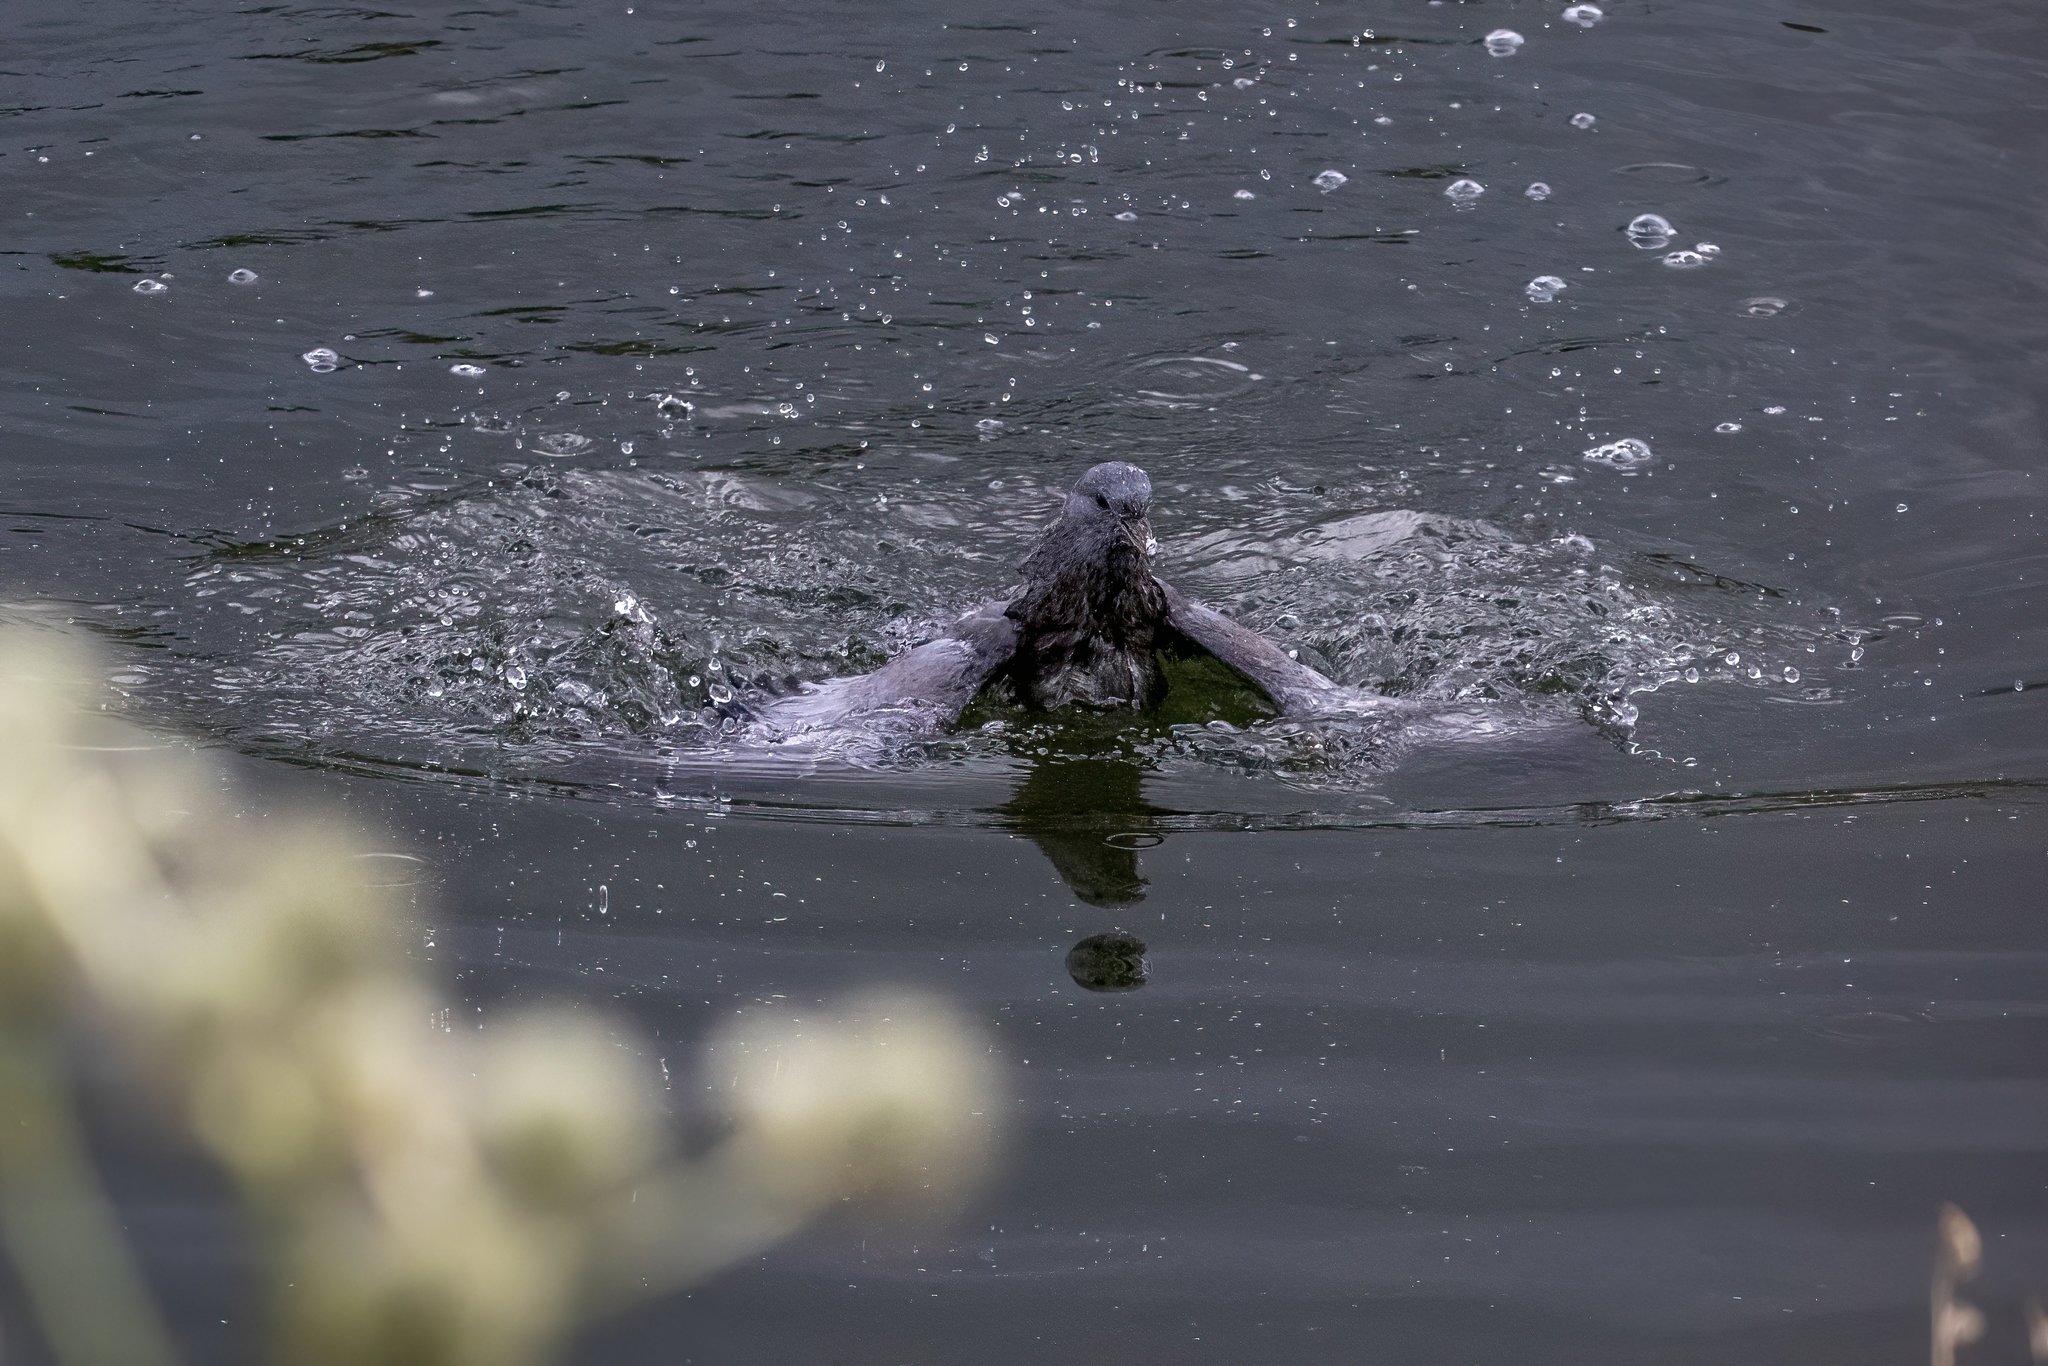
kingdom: Animalia
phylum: Chordata
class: Aves
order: Columbiformes
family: Columbidae
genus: Columba
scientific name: Columba livia
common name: Rock pigeon
